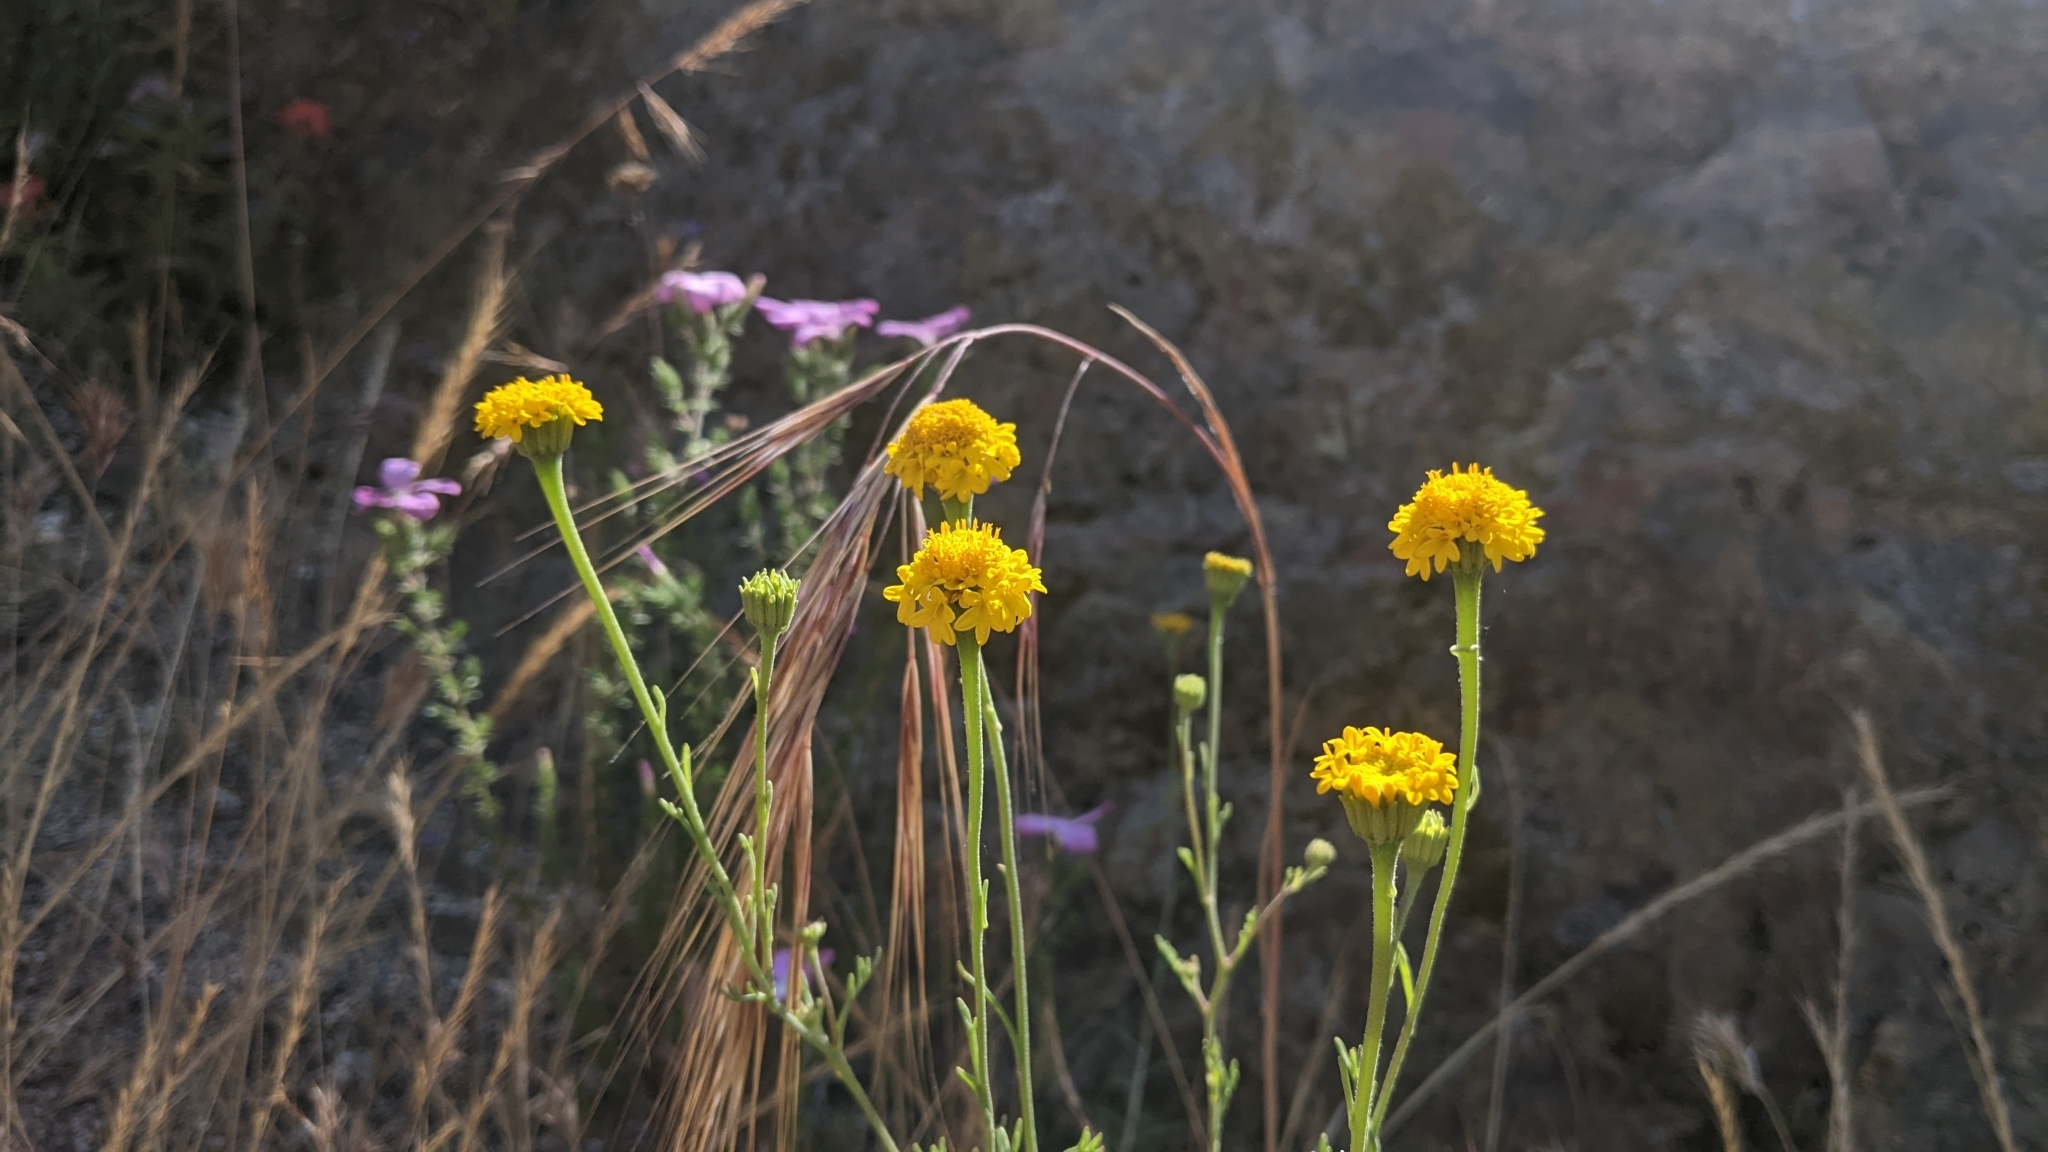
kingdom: Plantae
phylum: Tracheophyta
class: Magnoliopsida
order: Asterales
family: Asteraceae
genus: Chaenactis
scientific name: Chaenactis glabriuscula
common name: Yellow pincushion
